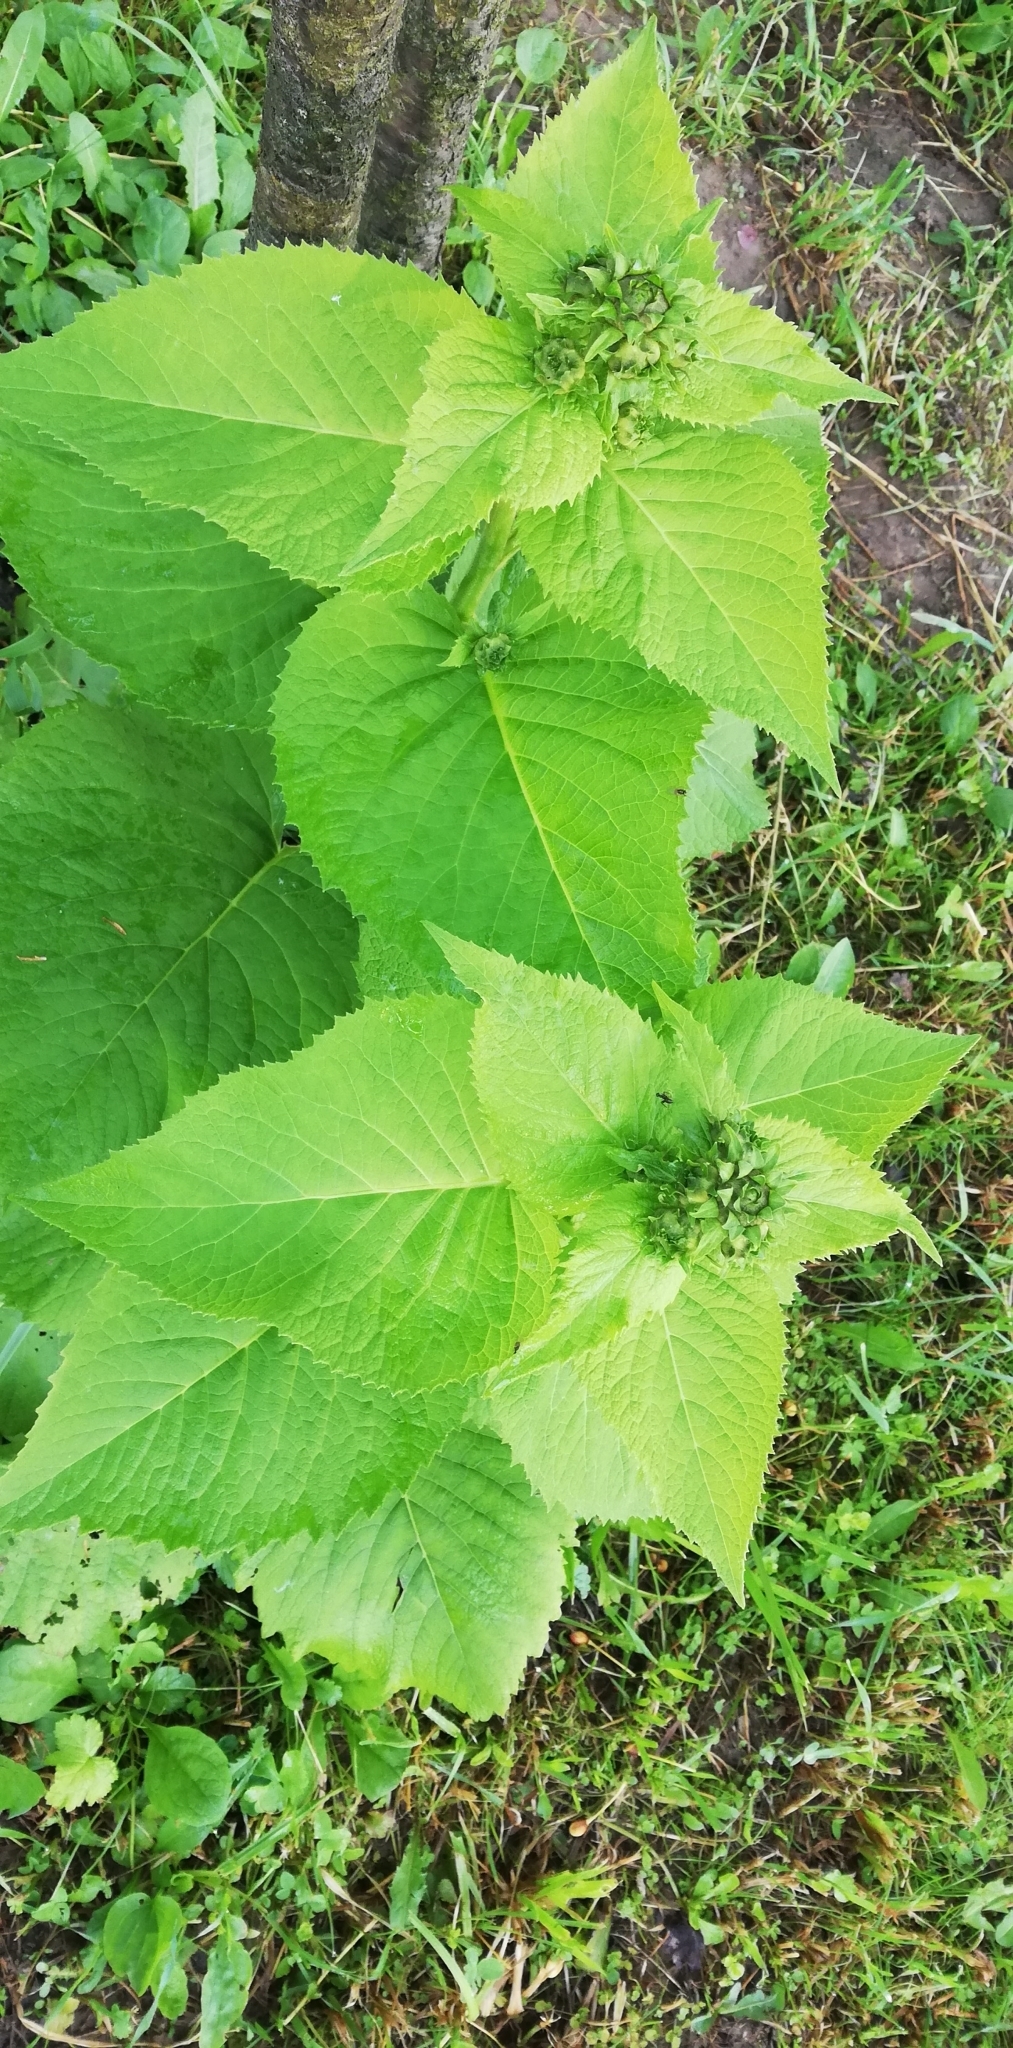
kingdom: Plantae
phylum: Tracheophyta
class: Magnoliopsida
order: Asterales
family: Asteraceae
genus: Telekia
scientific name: Telekia speciosa
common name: Yellow oxeye
